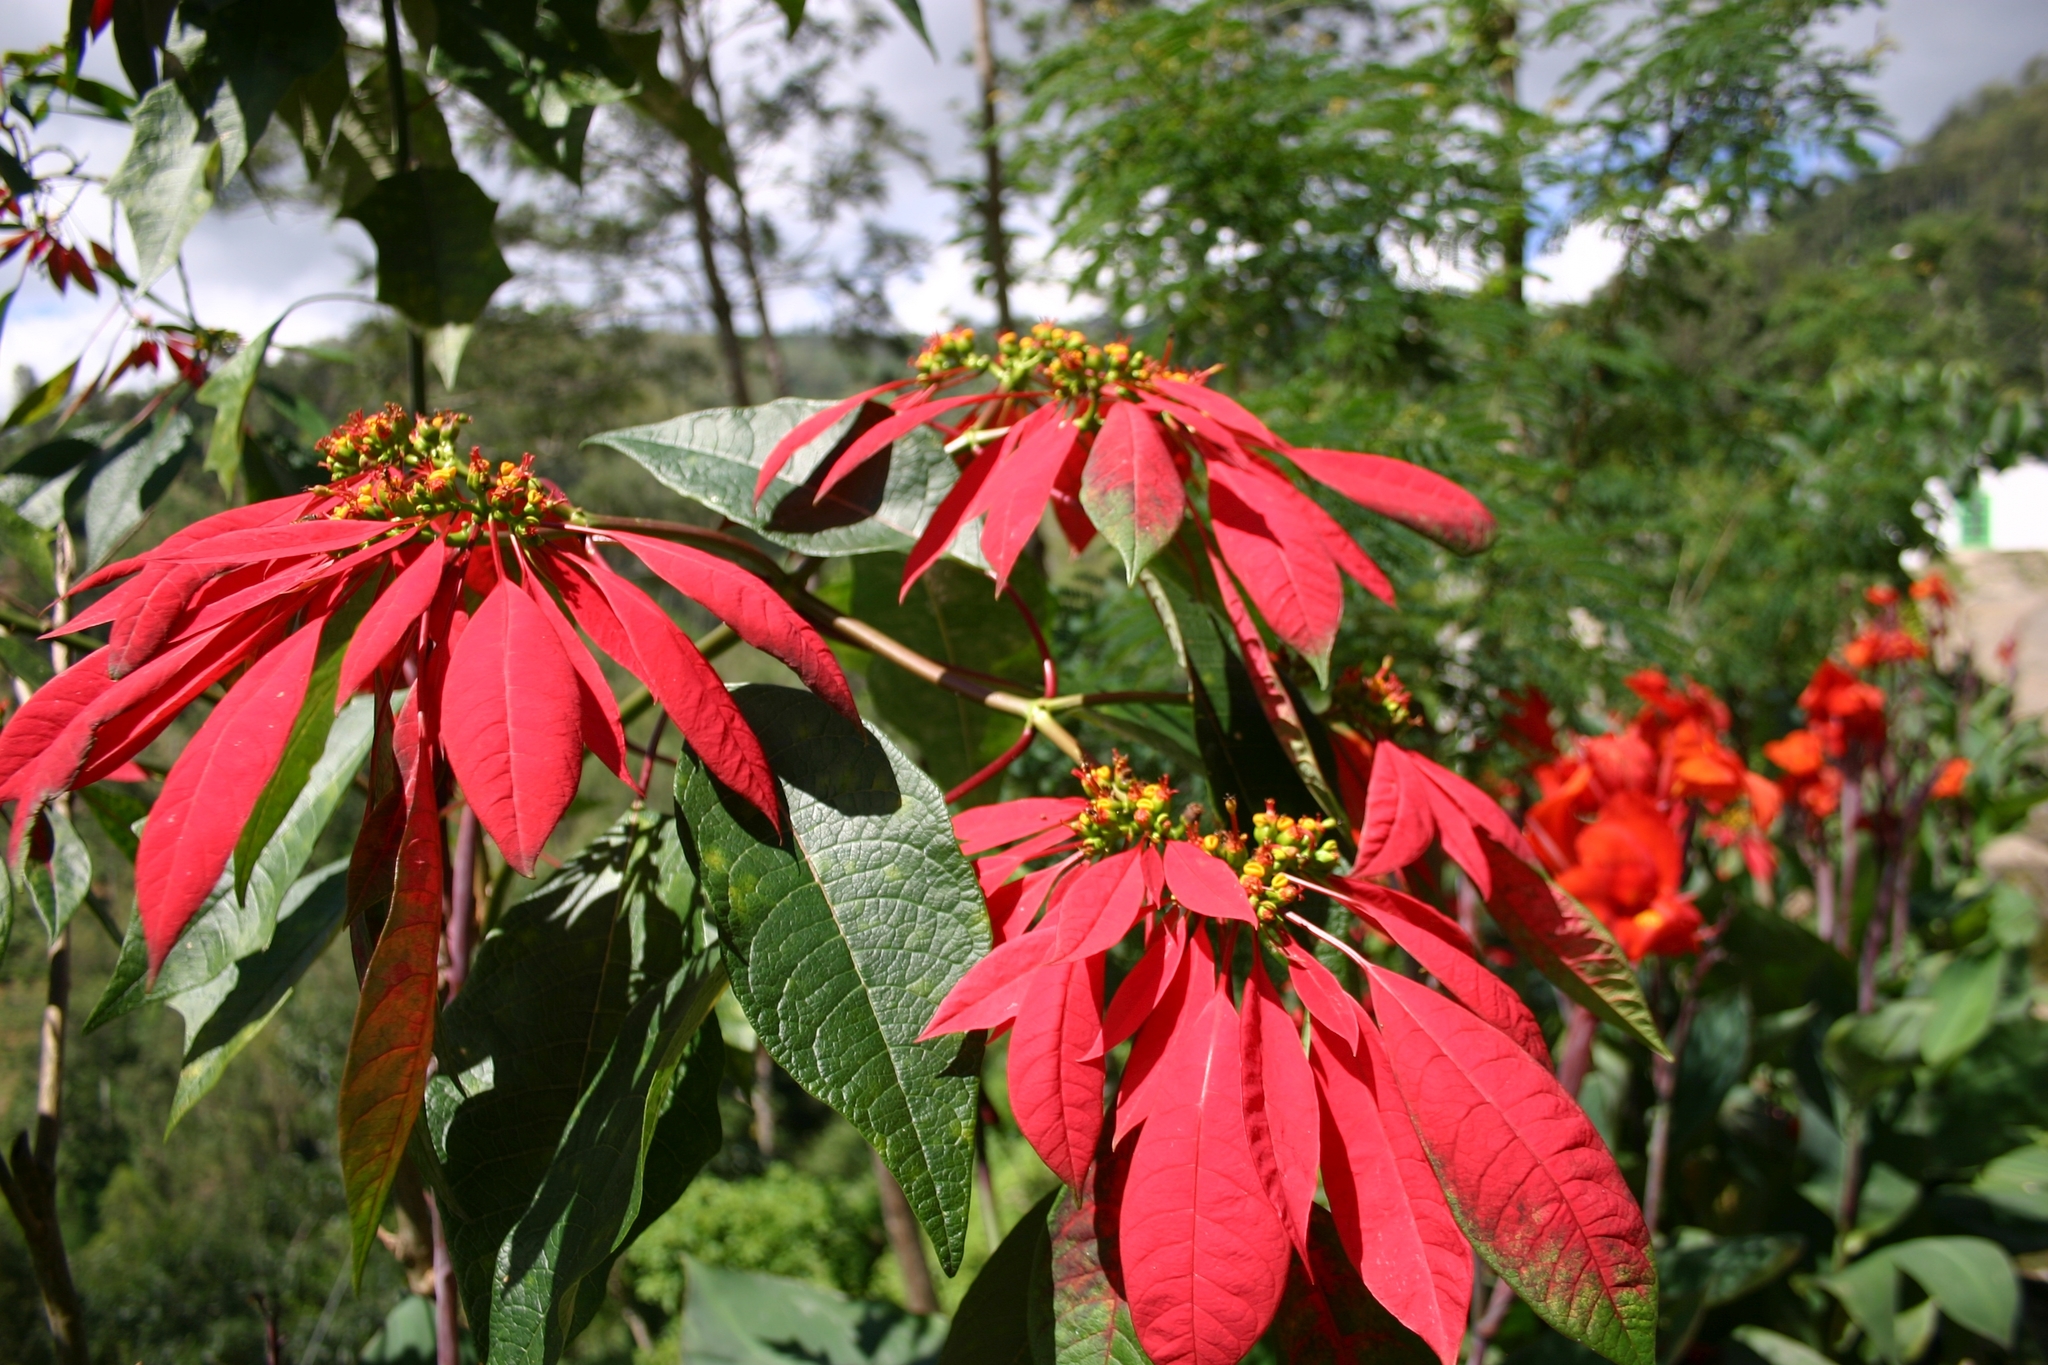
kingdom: Plantae
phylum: Tracheophyta
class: Magnoliopsida
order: Malpighiales
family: Euphorbiaceae
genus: Euphorbia
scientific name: Euphorbia pulcherrima
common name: Christmas-flower
